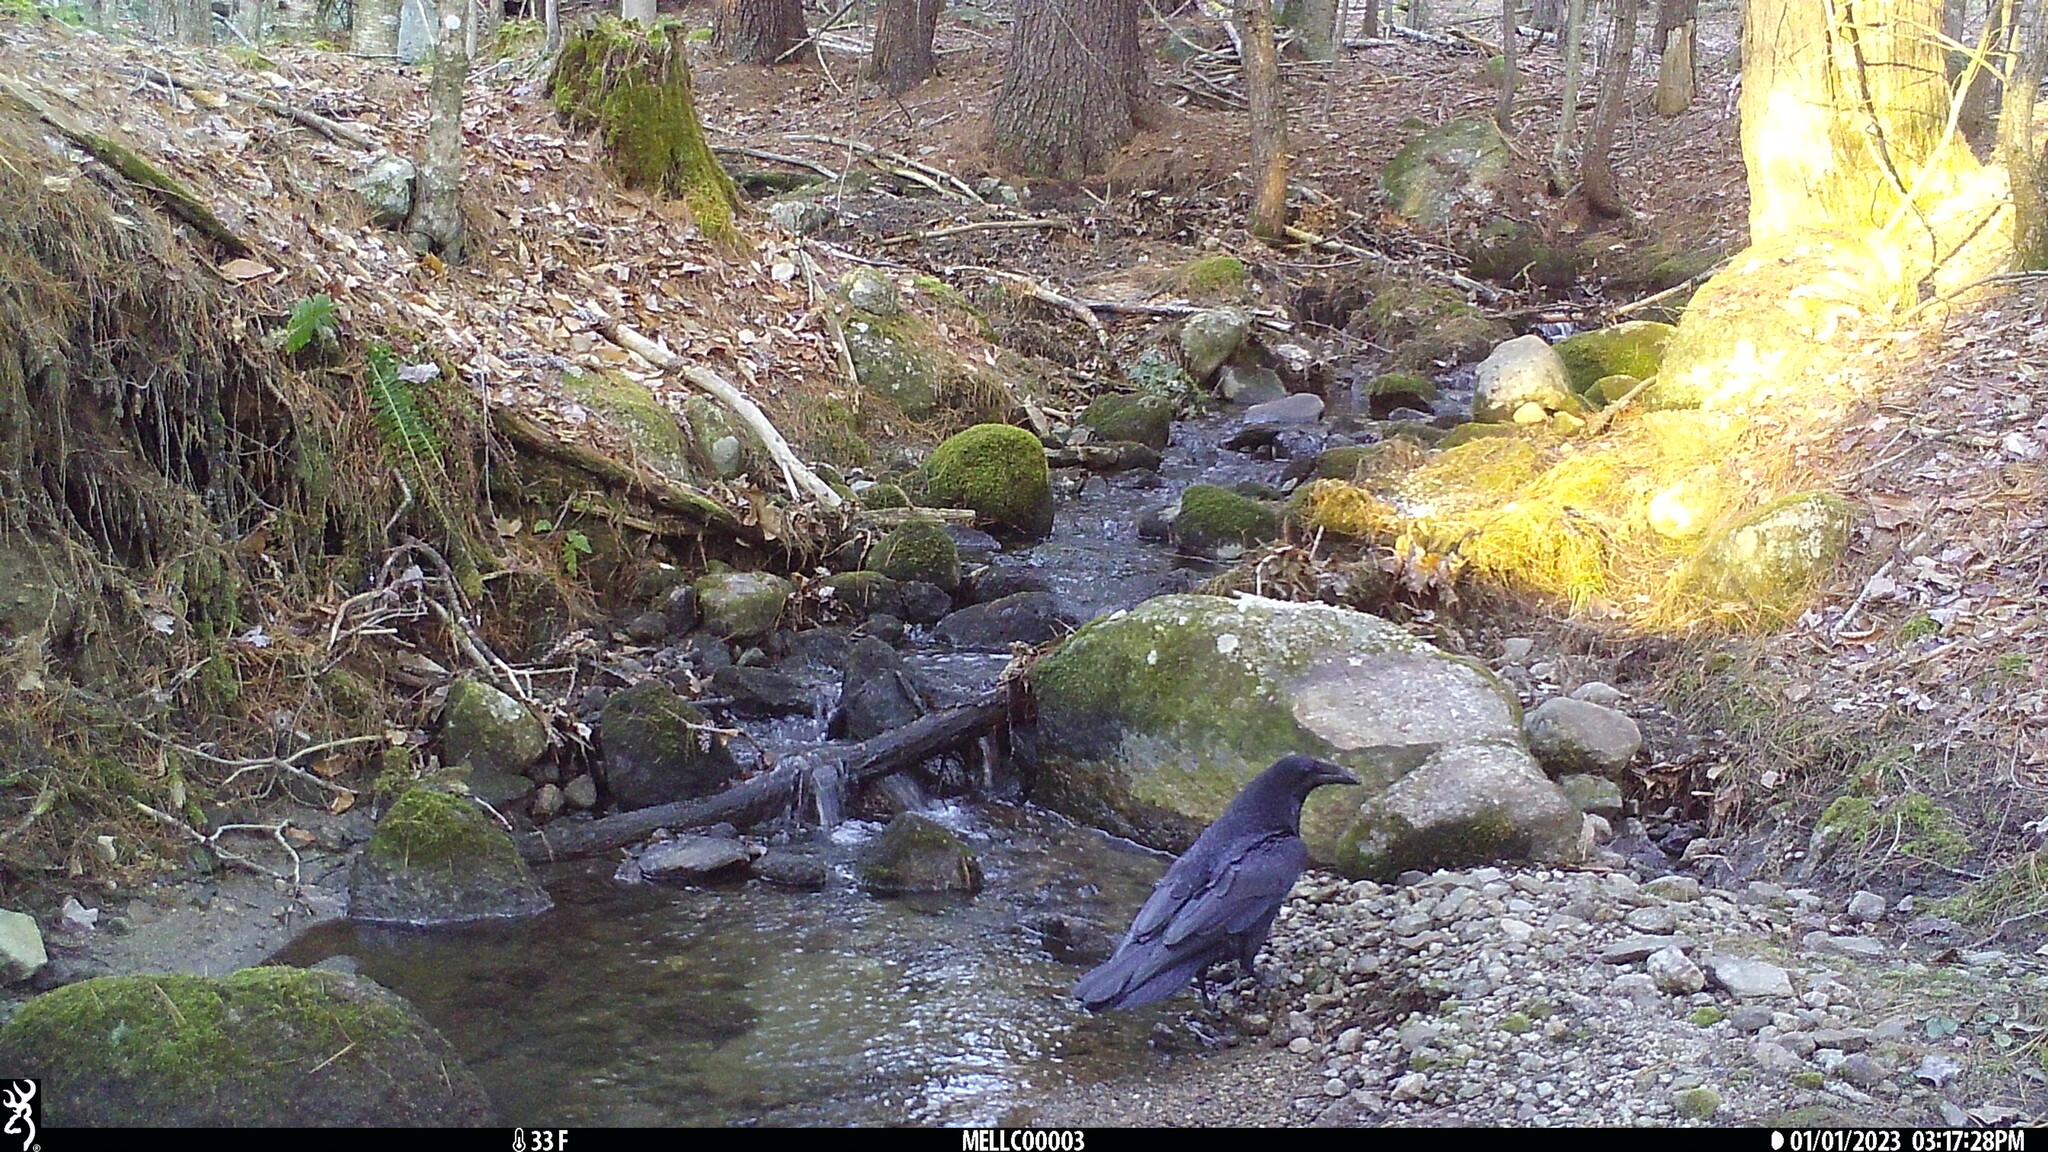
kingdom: Animalia
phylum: Chordata
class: Aves
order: Passeriformes
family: Corvidae
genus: Corvus
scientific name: Corvus corax
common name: Common raven
